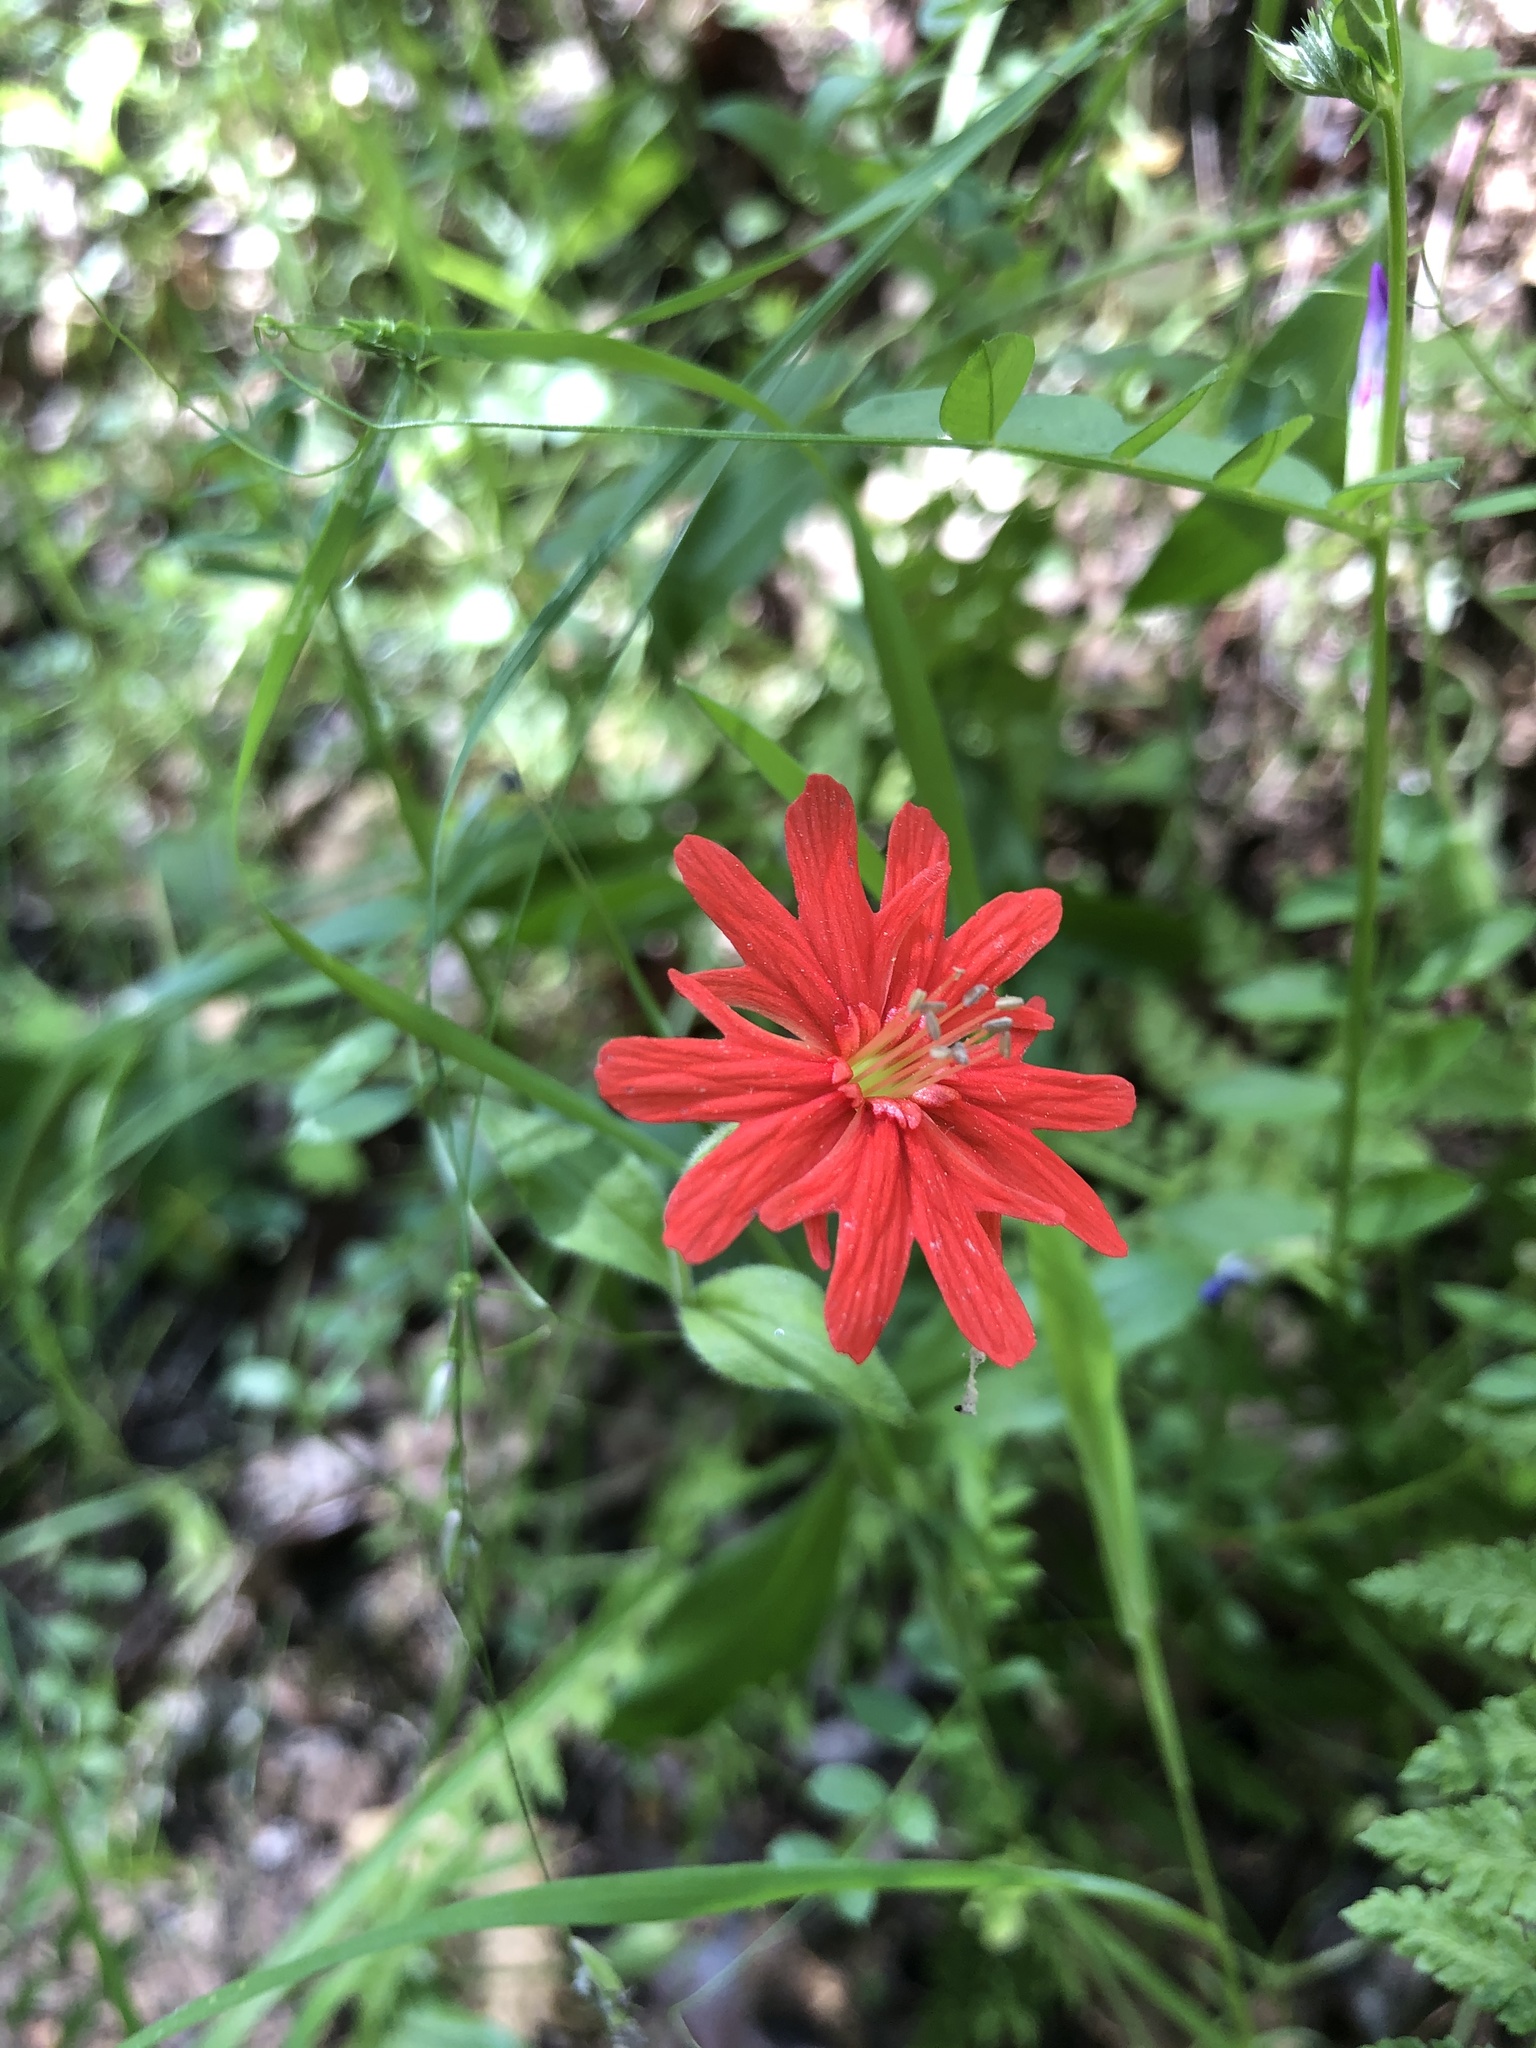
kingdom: Plantae
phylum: Tracheophyta
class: Magnoliopsida
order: Caryophyllales
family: Caryophyllaceae
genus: Silene
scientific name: Silene laciniata
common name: Indian-pink
